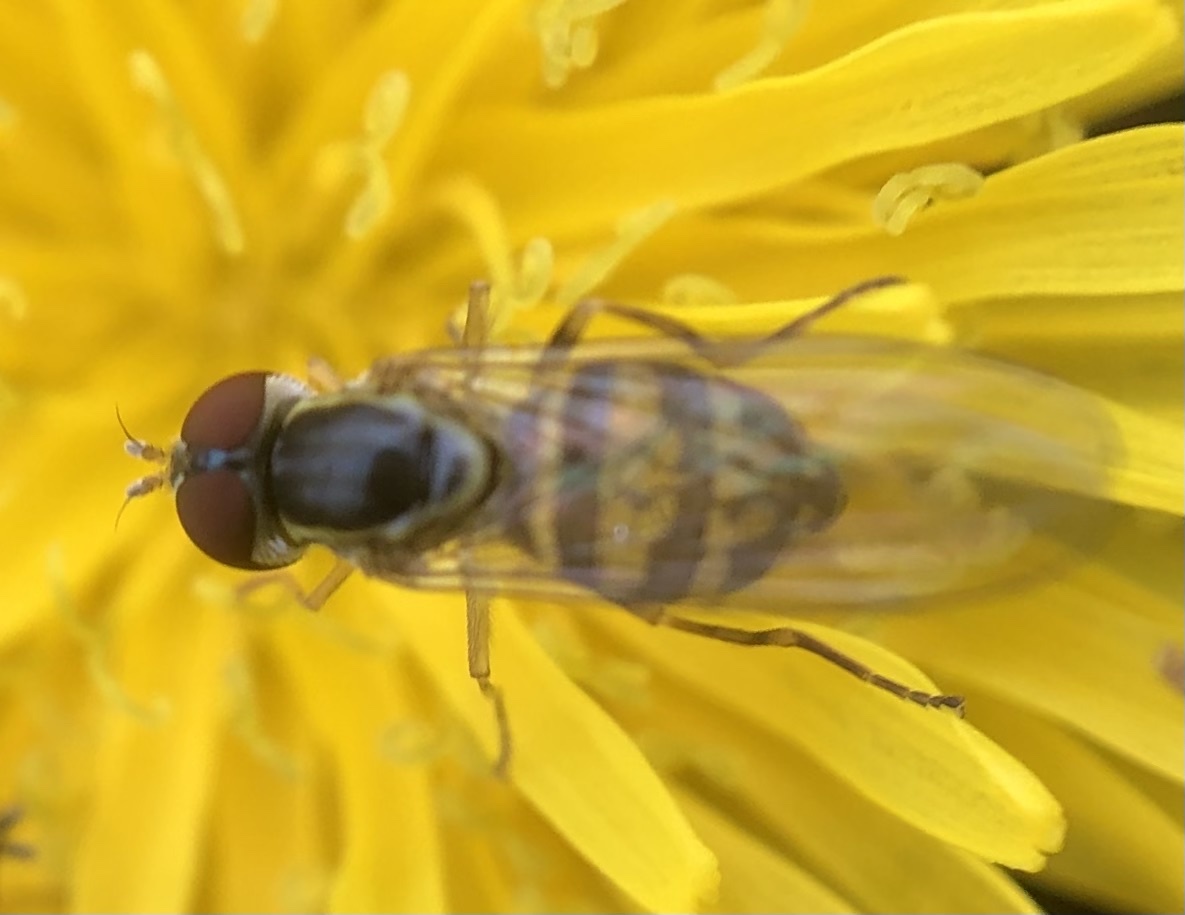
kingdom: Animalia
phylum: Arthropoda
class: Insecta
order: Diptera
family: Syrphidae
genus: Toxomerus
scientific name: Toxomerus geminatus
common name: Eastern calligrapher
